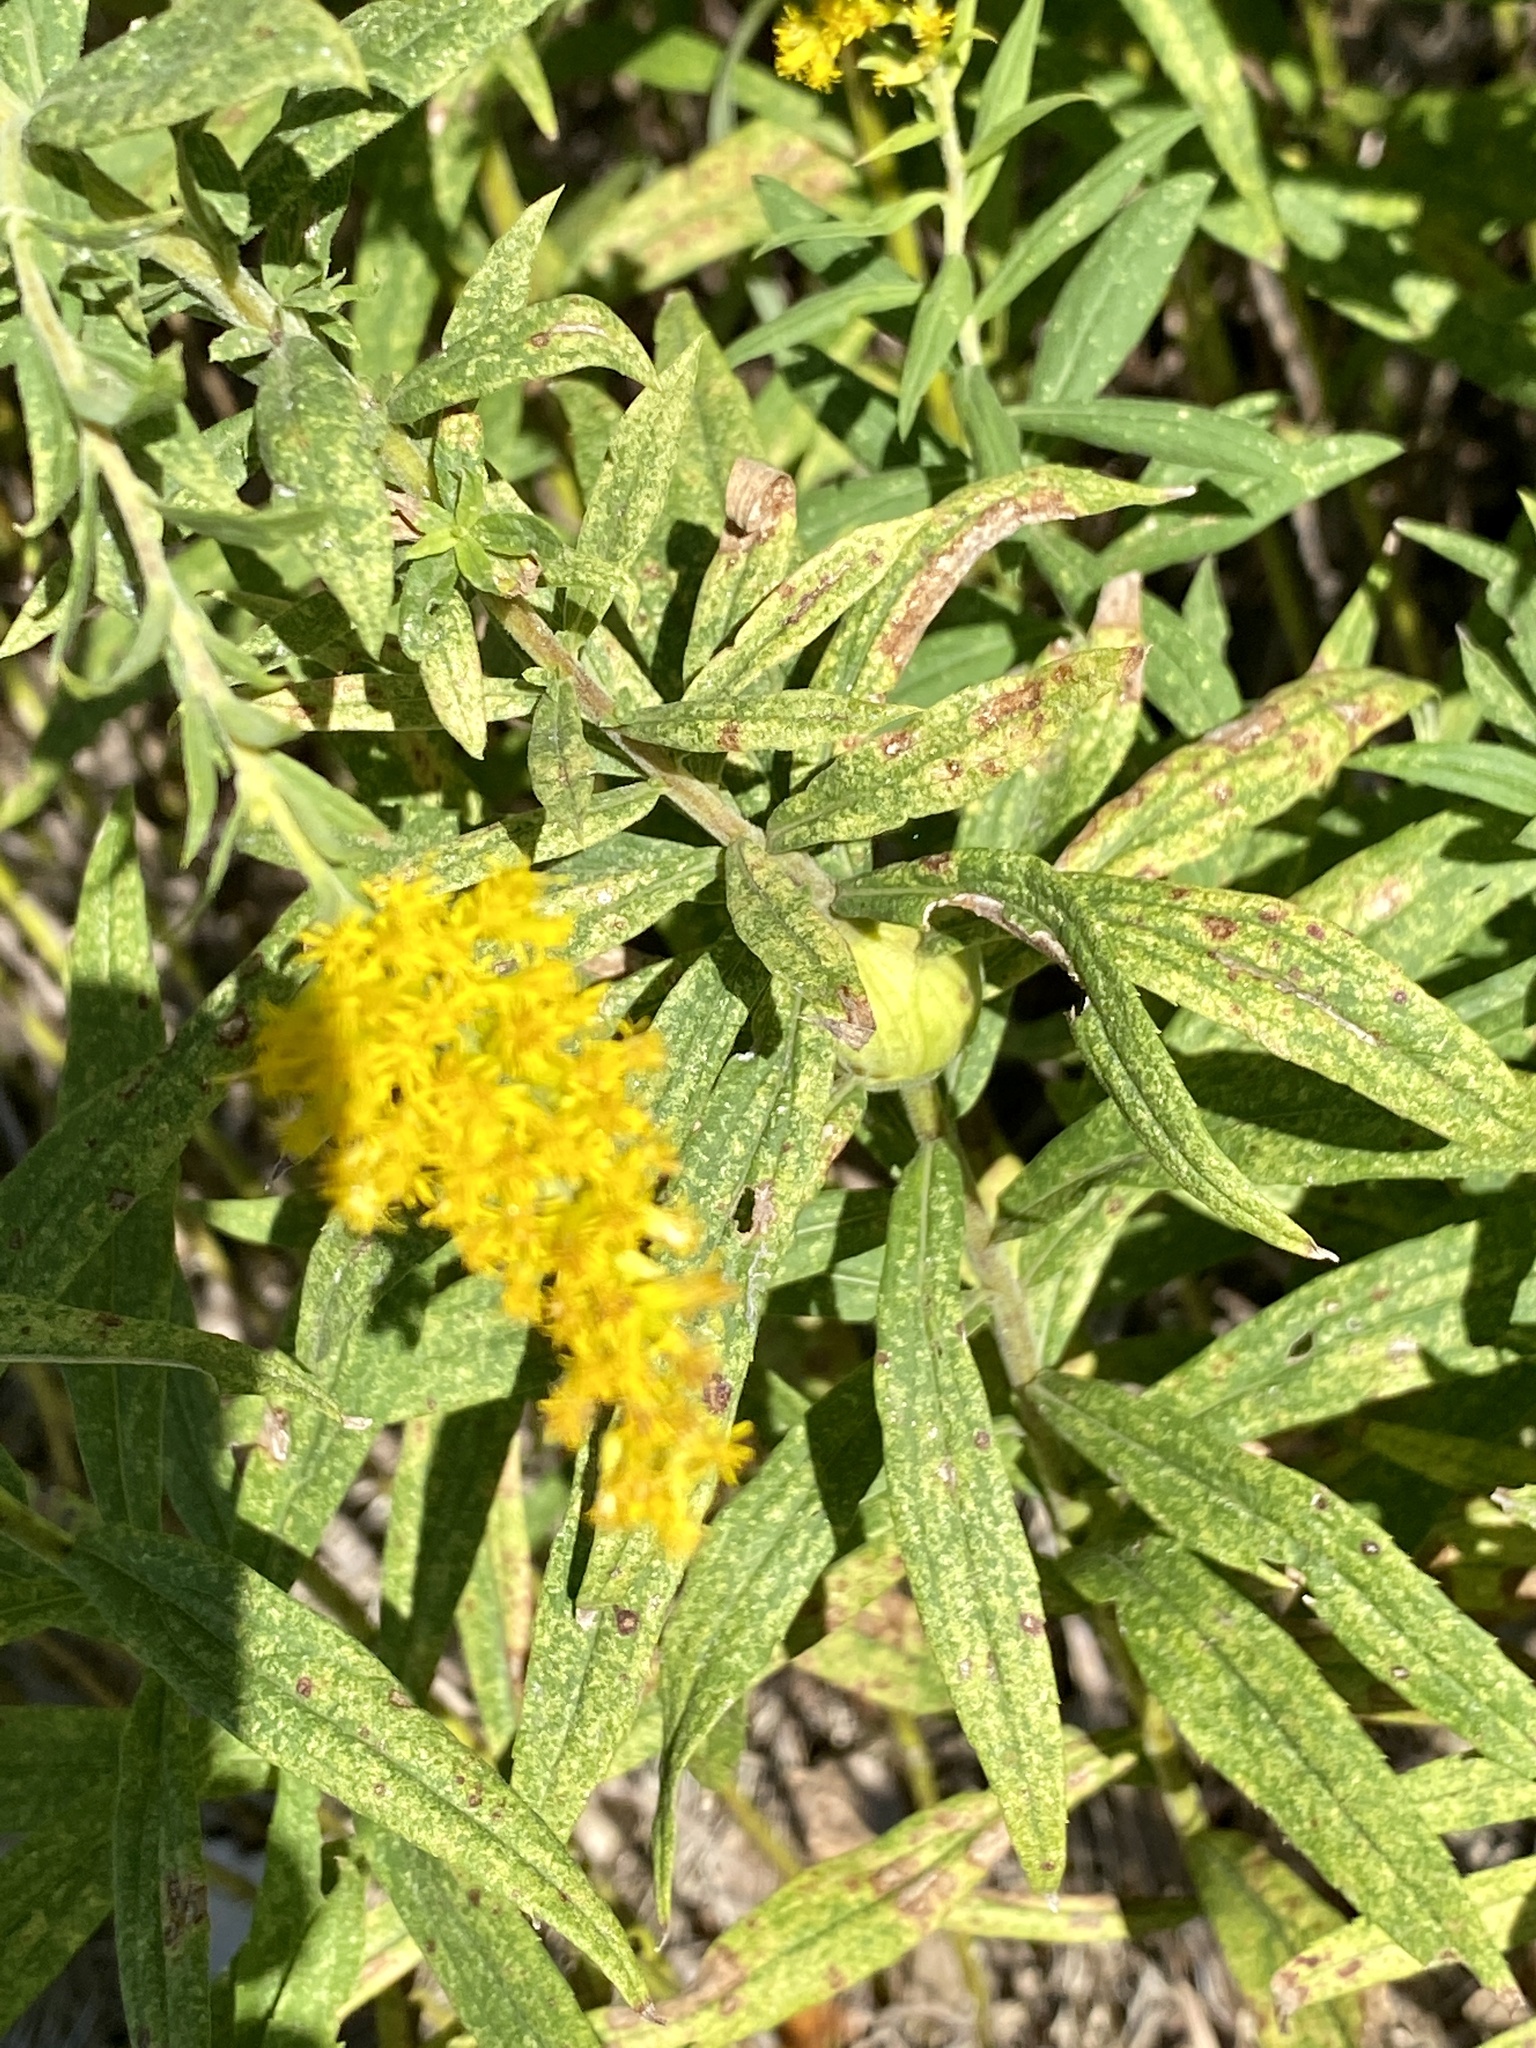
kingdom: Animalia
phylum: Arthropoda
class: Insecta
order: Diptera
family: Tephritidae
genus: Eurosta
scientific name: Eurosta solidaginis
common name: Goldenrod gall fly
